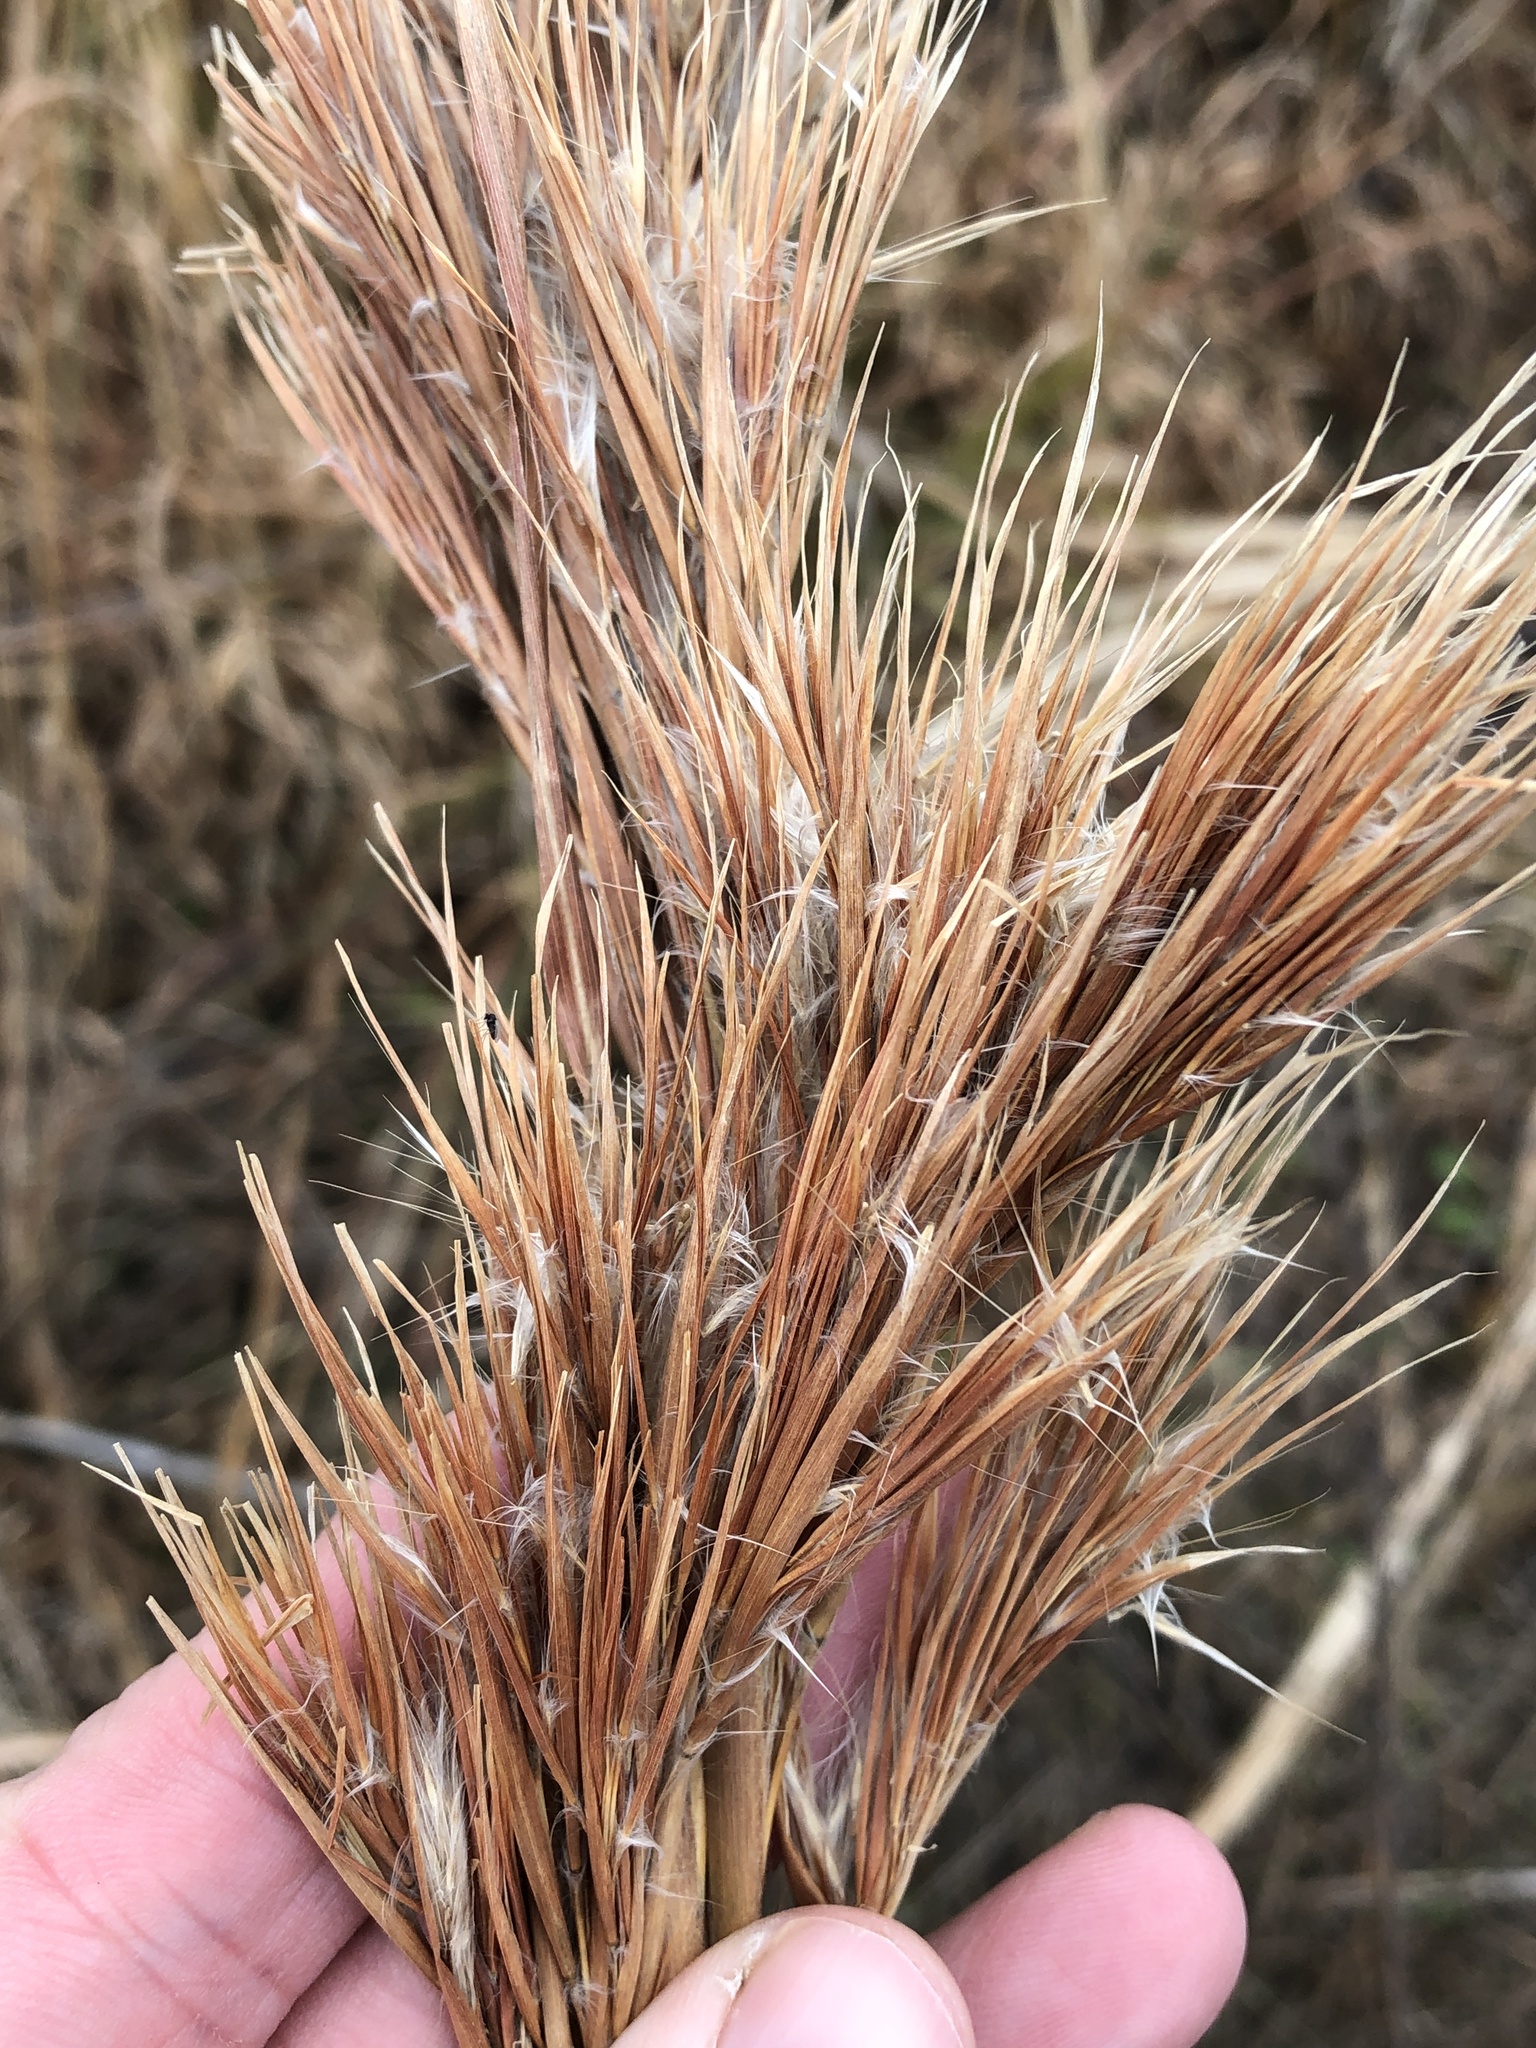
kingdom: Plantae
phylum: Tracheophyta
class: Liliopsida
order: Poales
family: Poaceae
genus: Andropogon
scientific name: Andropogon tenuispatheus
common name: Bushy bluestem
